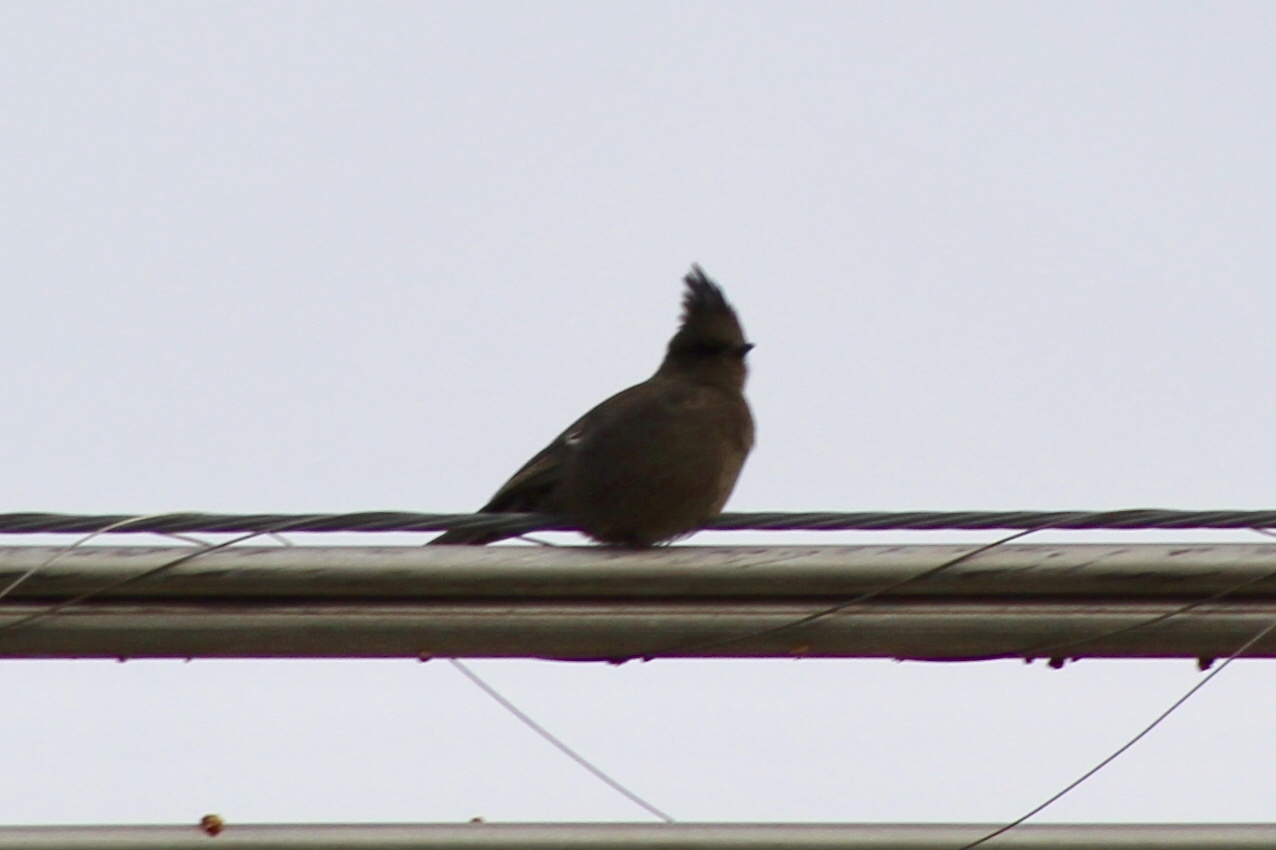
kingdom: Animalia
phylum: Chordata
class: Aves
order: Passeriformes
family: Ptilogonatidae
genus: Phainopepla
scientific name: Phainopepla nitens
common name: Phainopepla
